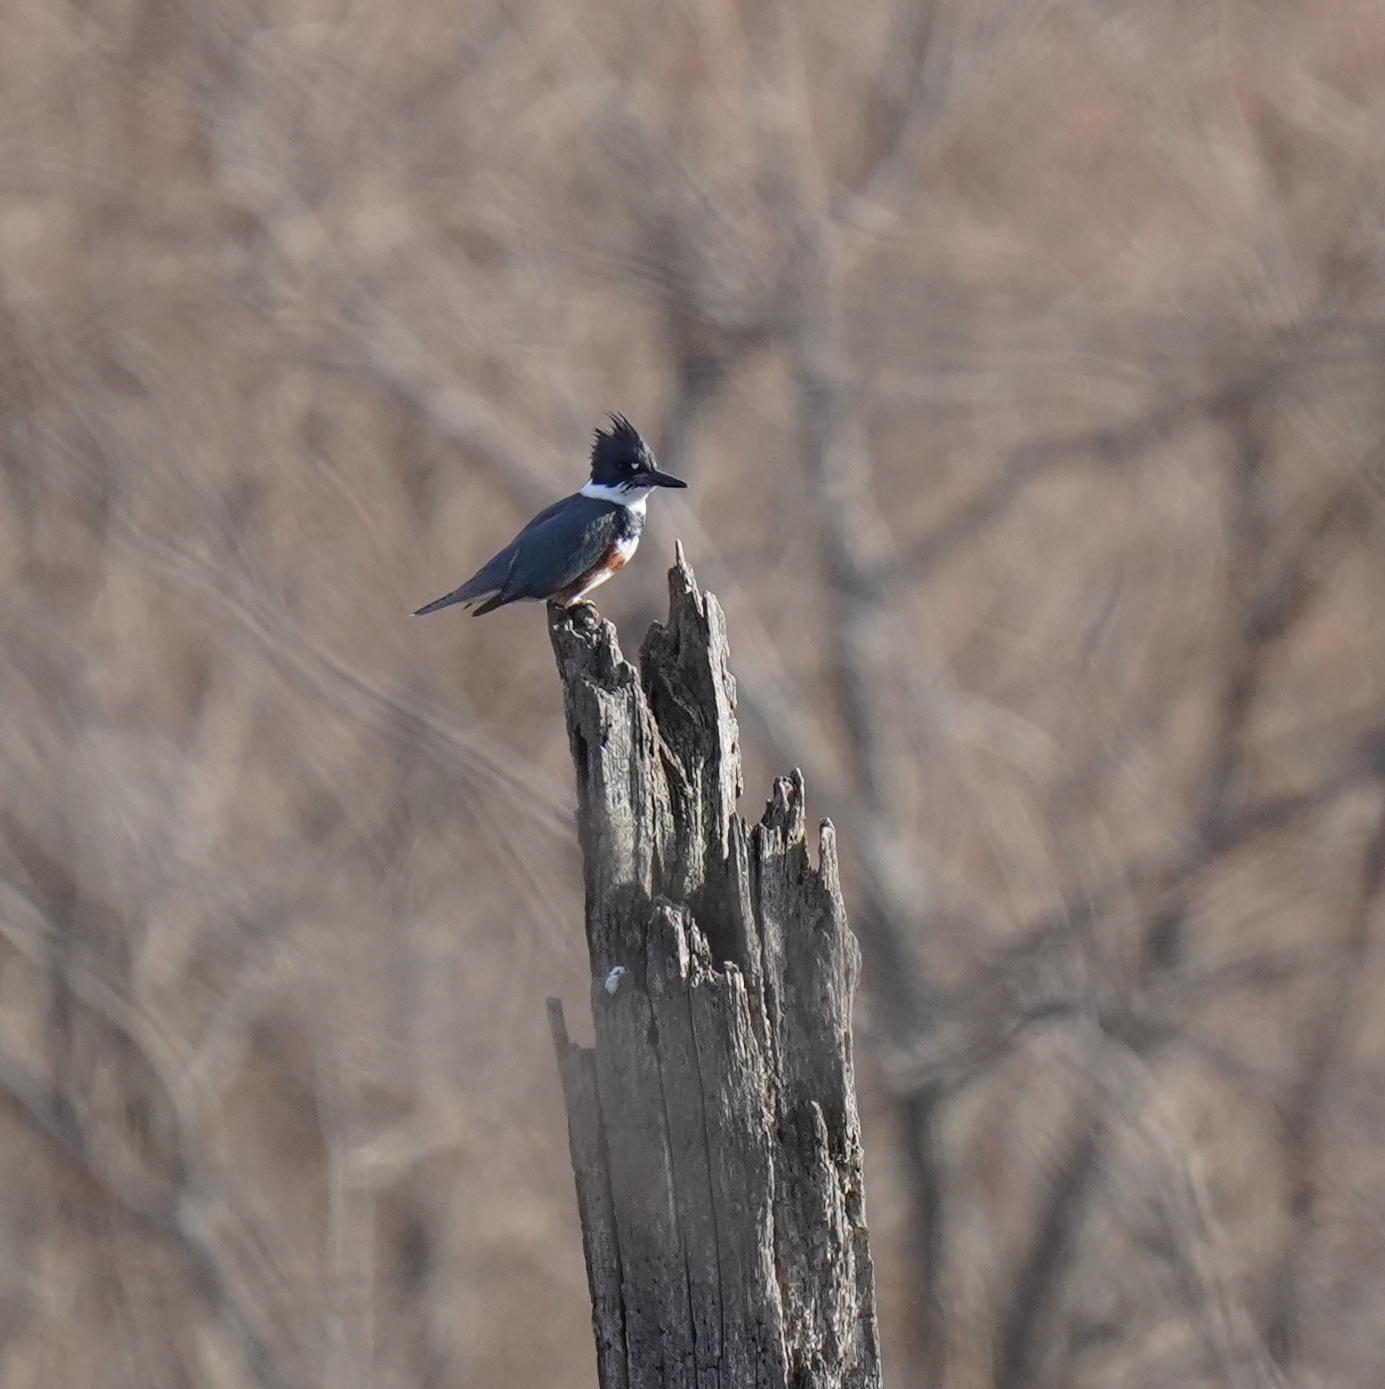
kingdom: Animalia
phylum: Chordata
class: Aves
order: Coraciiformes
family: Alcedinidae
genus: Megaceryle
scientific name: Megaceryle alcyon
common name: Belted kingfisher
